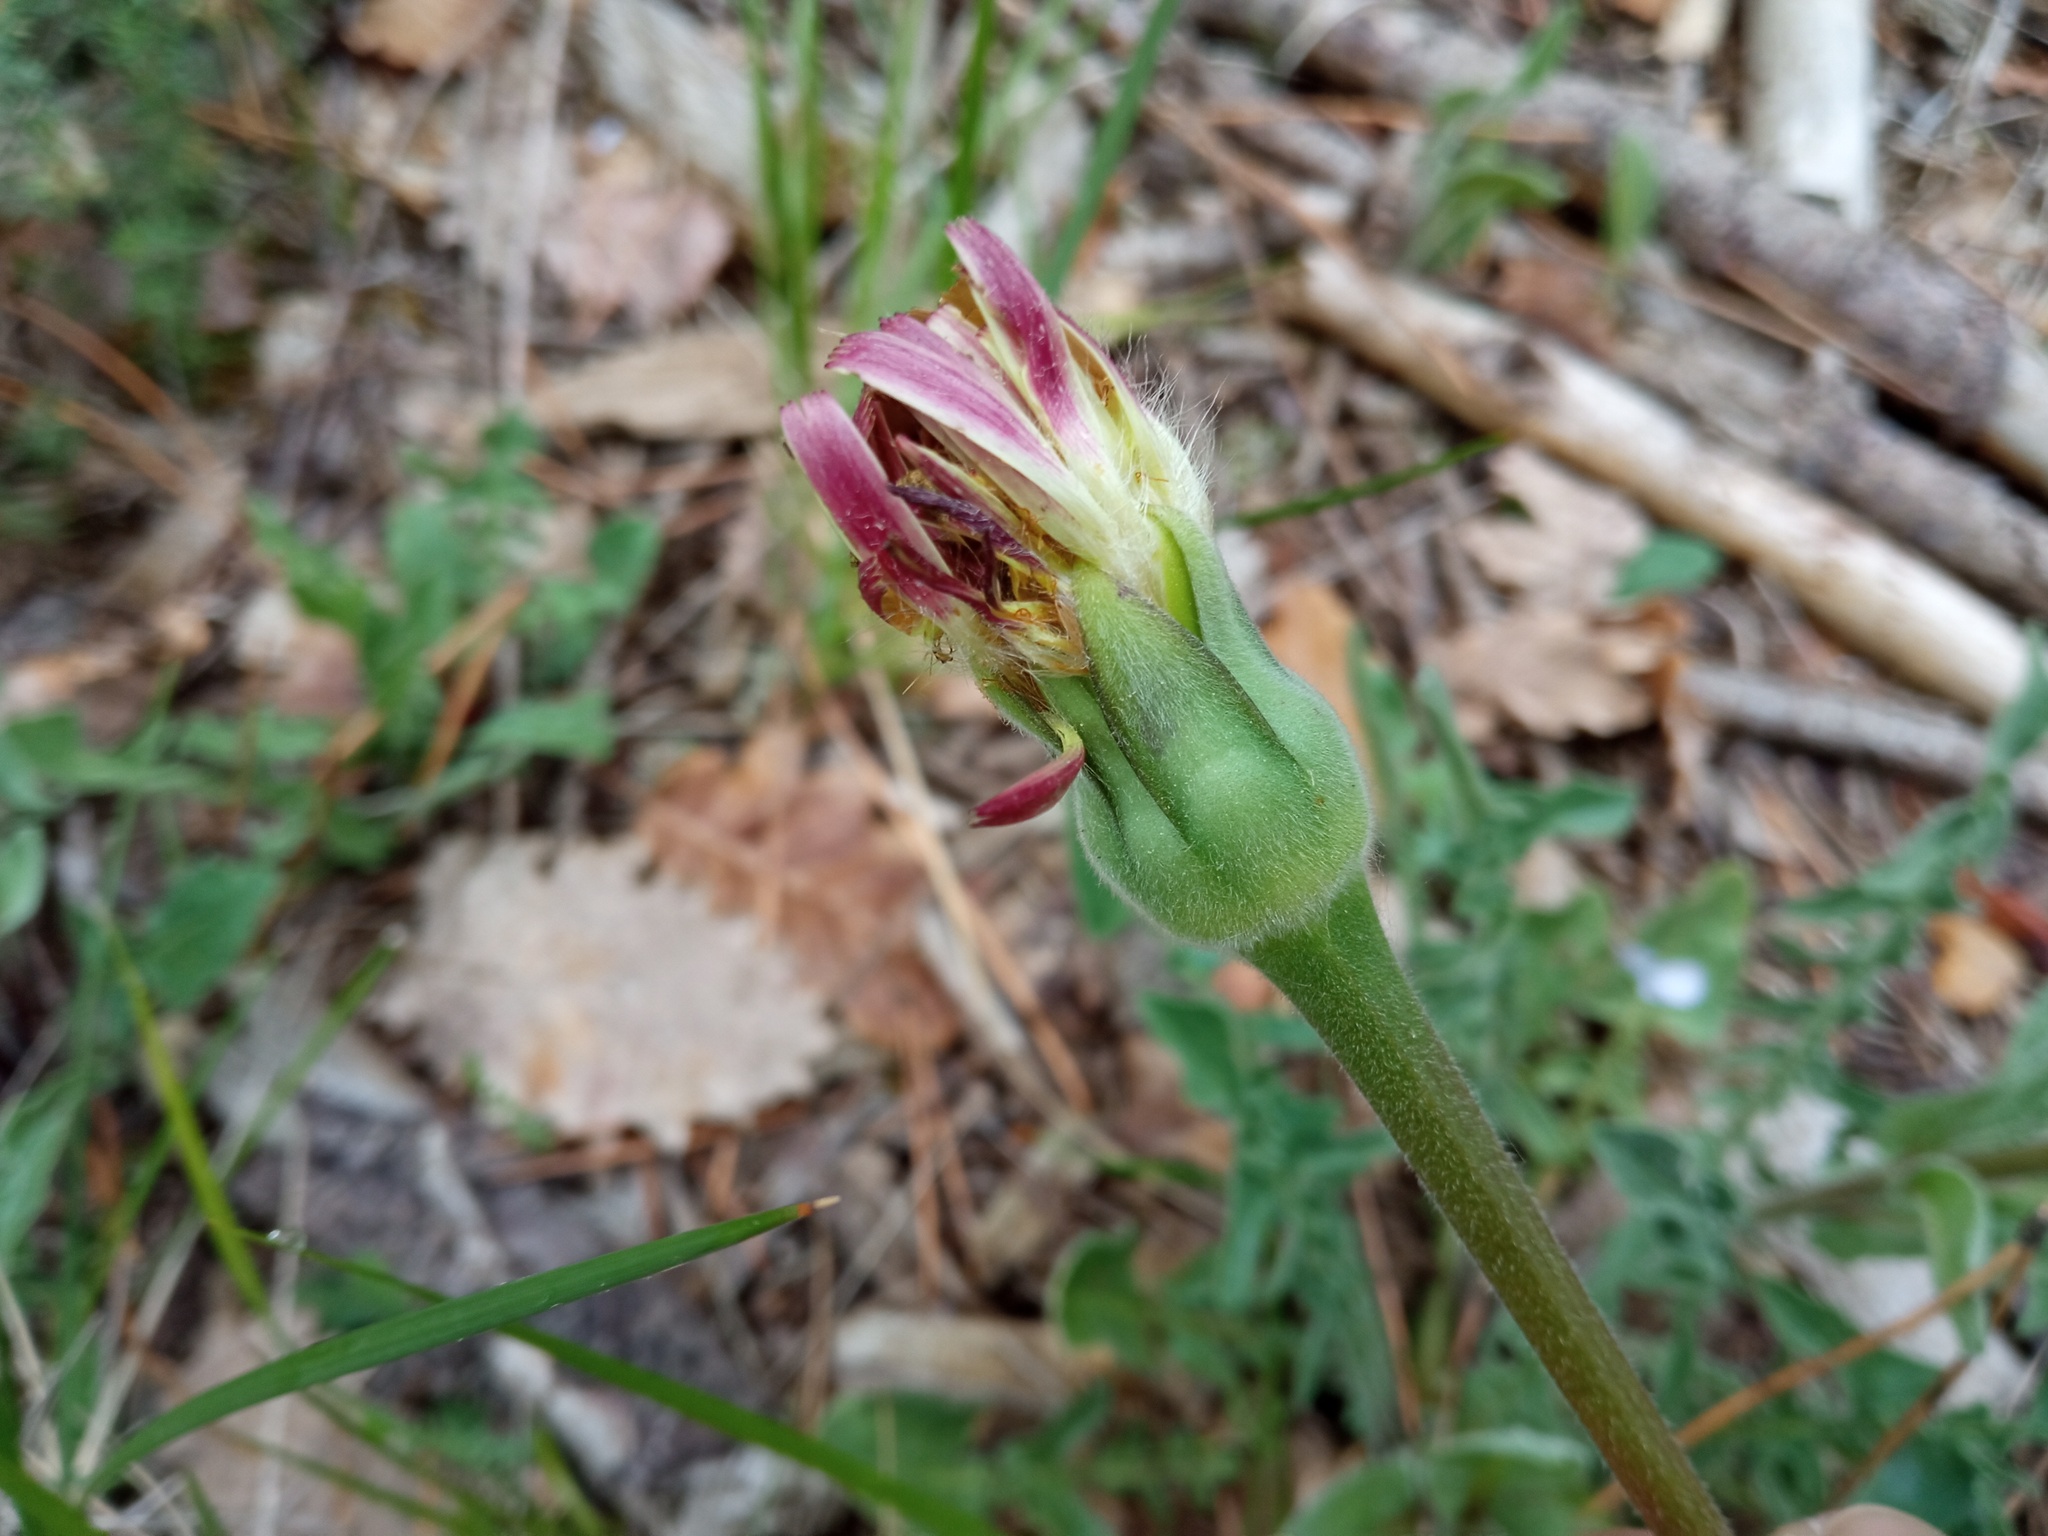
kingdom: Plantae
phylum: Tracheophyta
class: Magnoliopsida
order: Asterales
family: Asteraceae
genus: Urospermum
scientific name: Urospermum dalechampii
